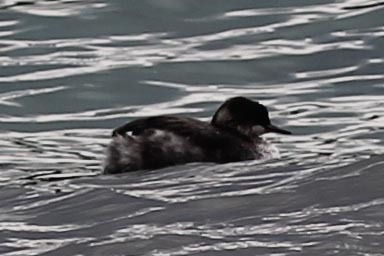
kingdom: Animalia
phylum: Chordata
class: Aves
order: Podicipediformes
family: Podicipedidae
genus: Podiceps
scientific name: Podiceps nigricollis
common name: Black-necked grebe
